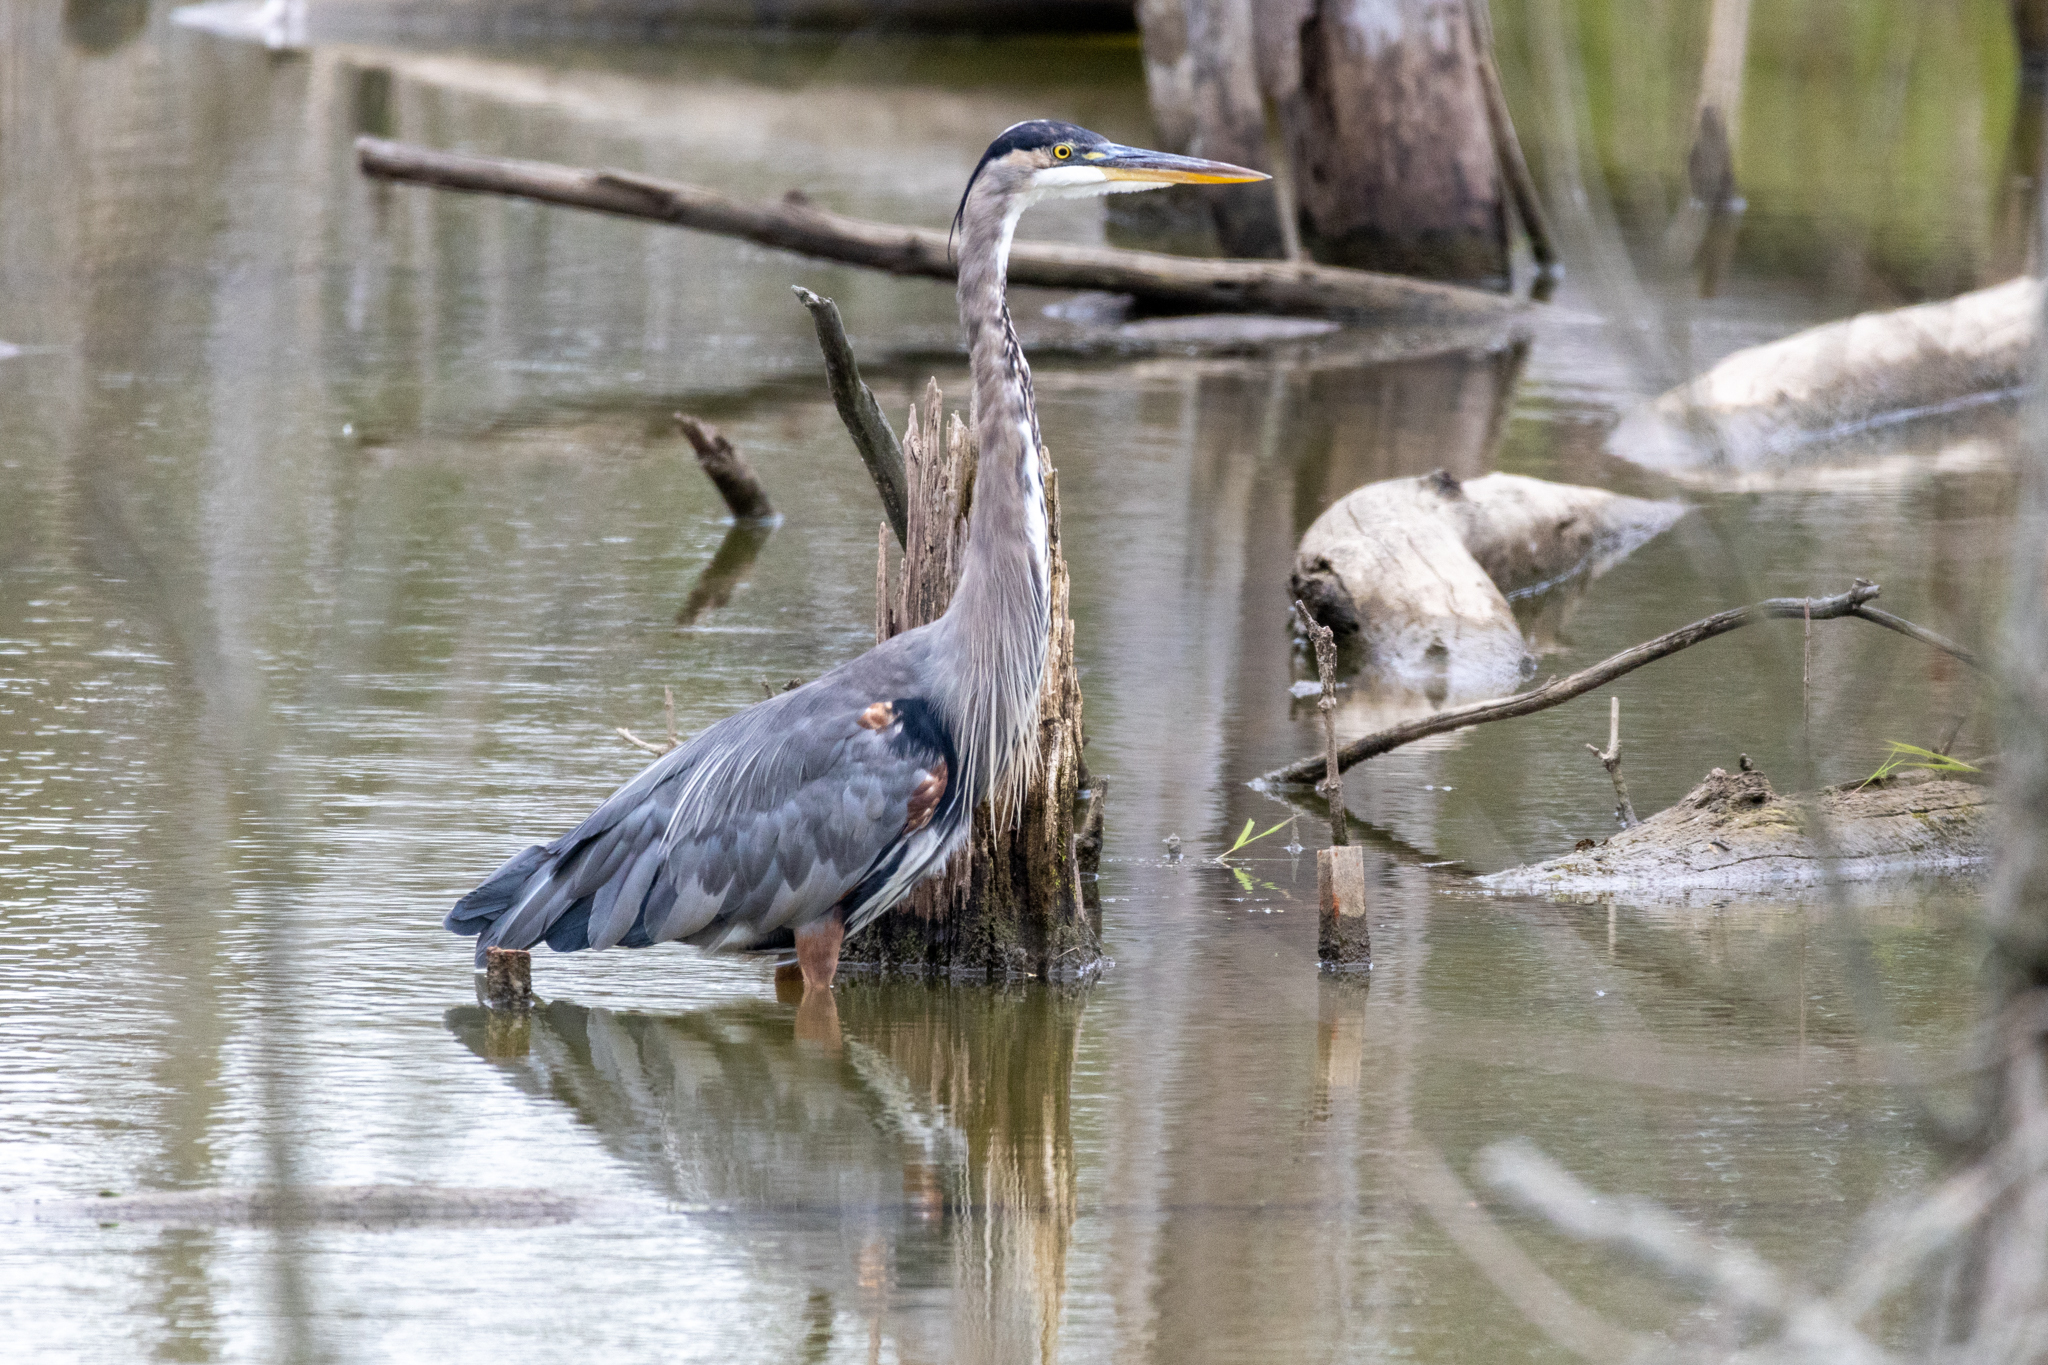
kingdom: Animalia
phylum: Chordata
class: Aves
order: Pelecaniformes
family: Ardeidae
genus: Ardea
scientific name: Ardea herodias
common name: Great blue heron
